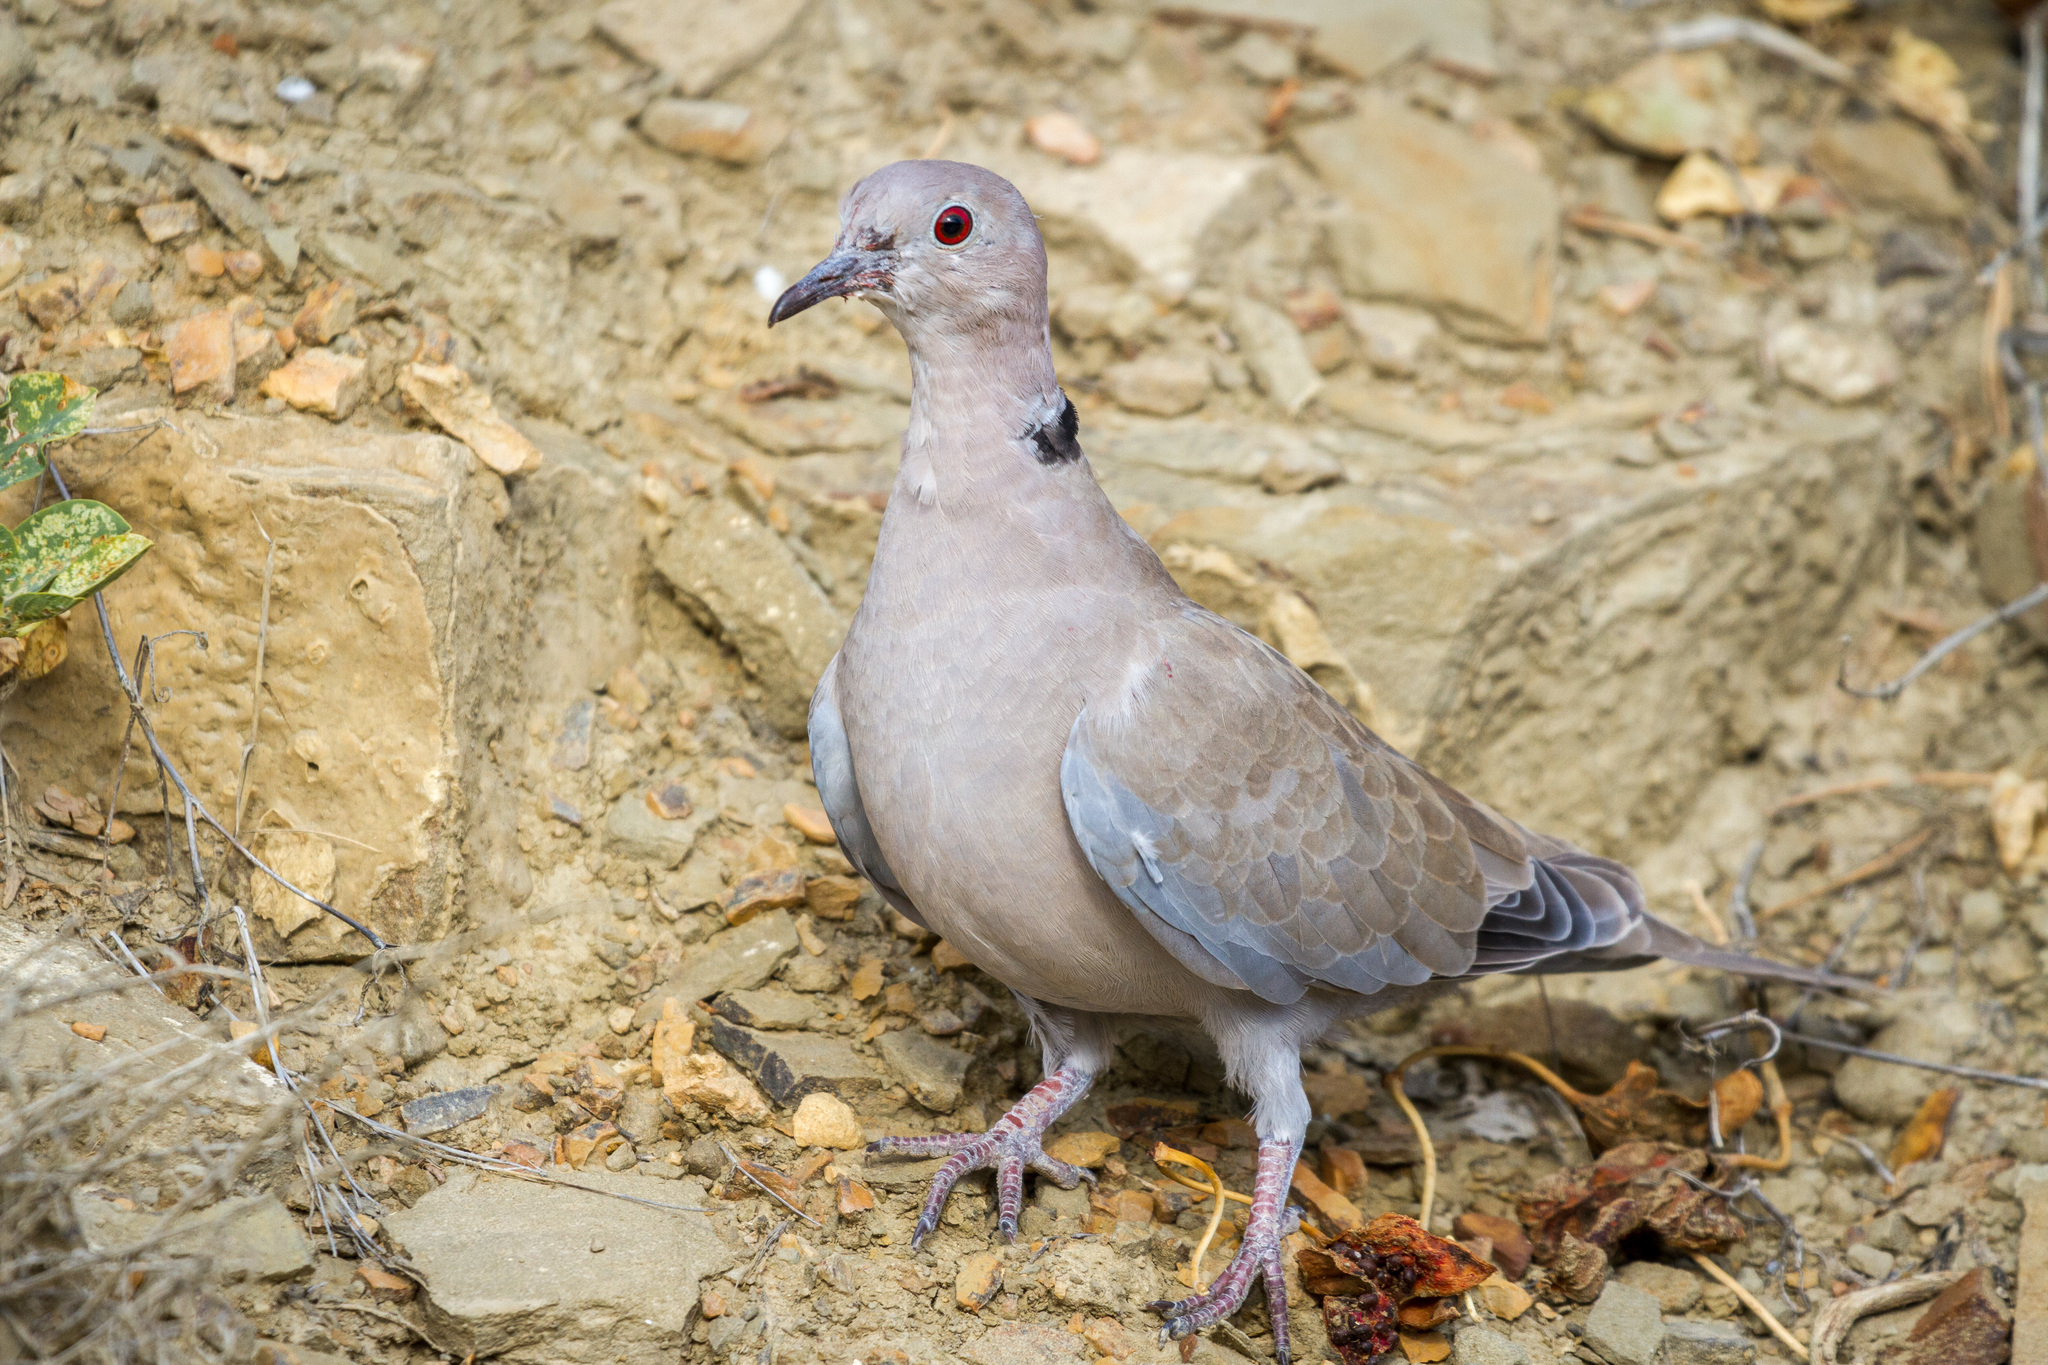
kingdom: Animalia
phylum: Chordata
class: Aves
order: Columbiformes
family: Columbidae
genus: Streptopelia
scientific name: Streptopelia decaocto
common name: Eurasian collared dove
